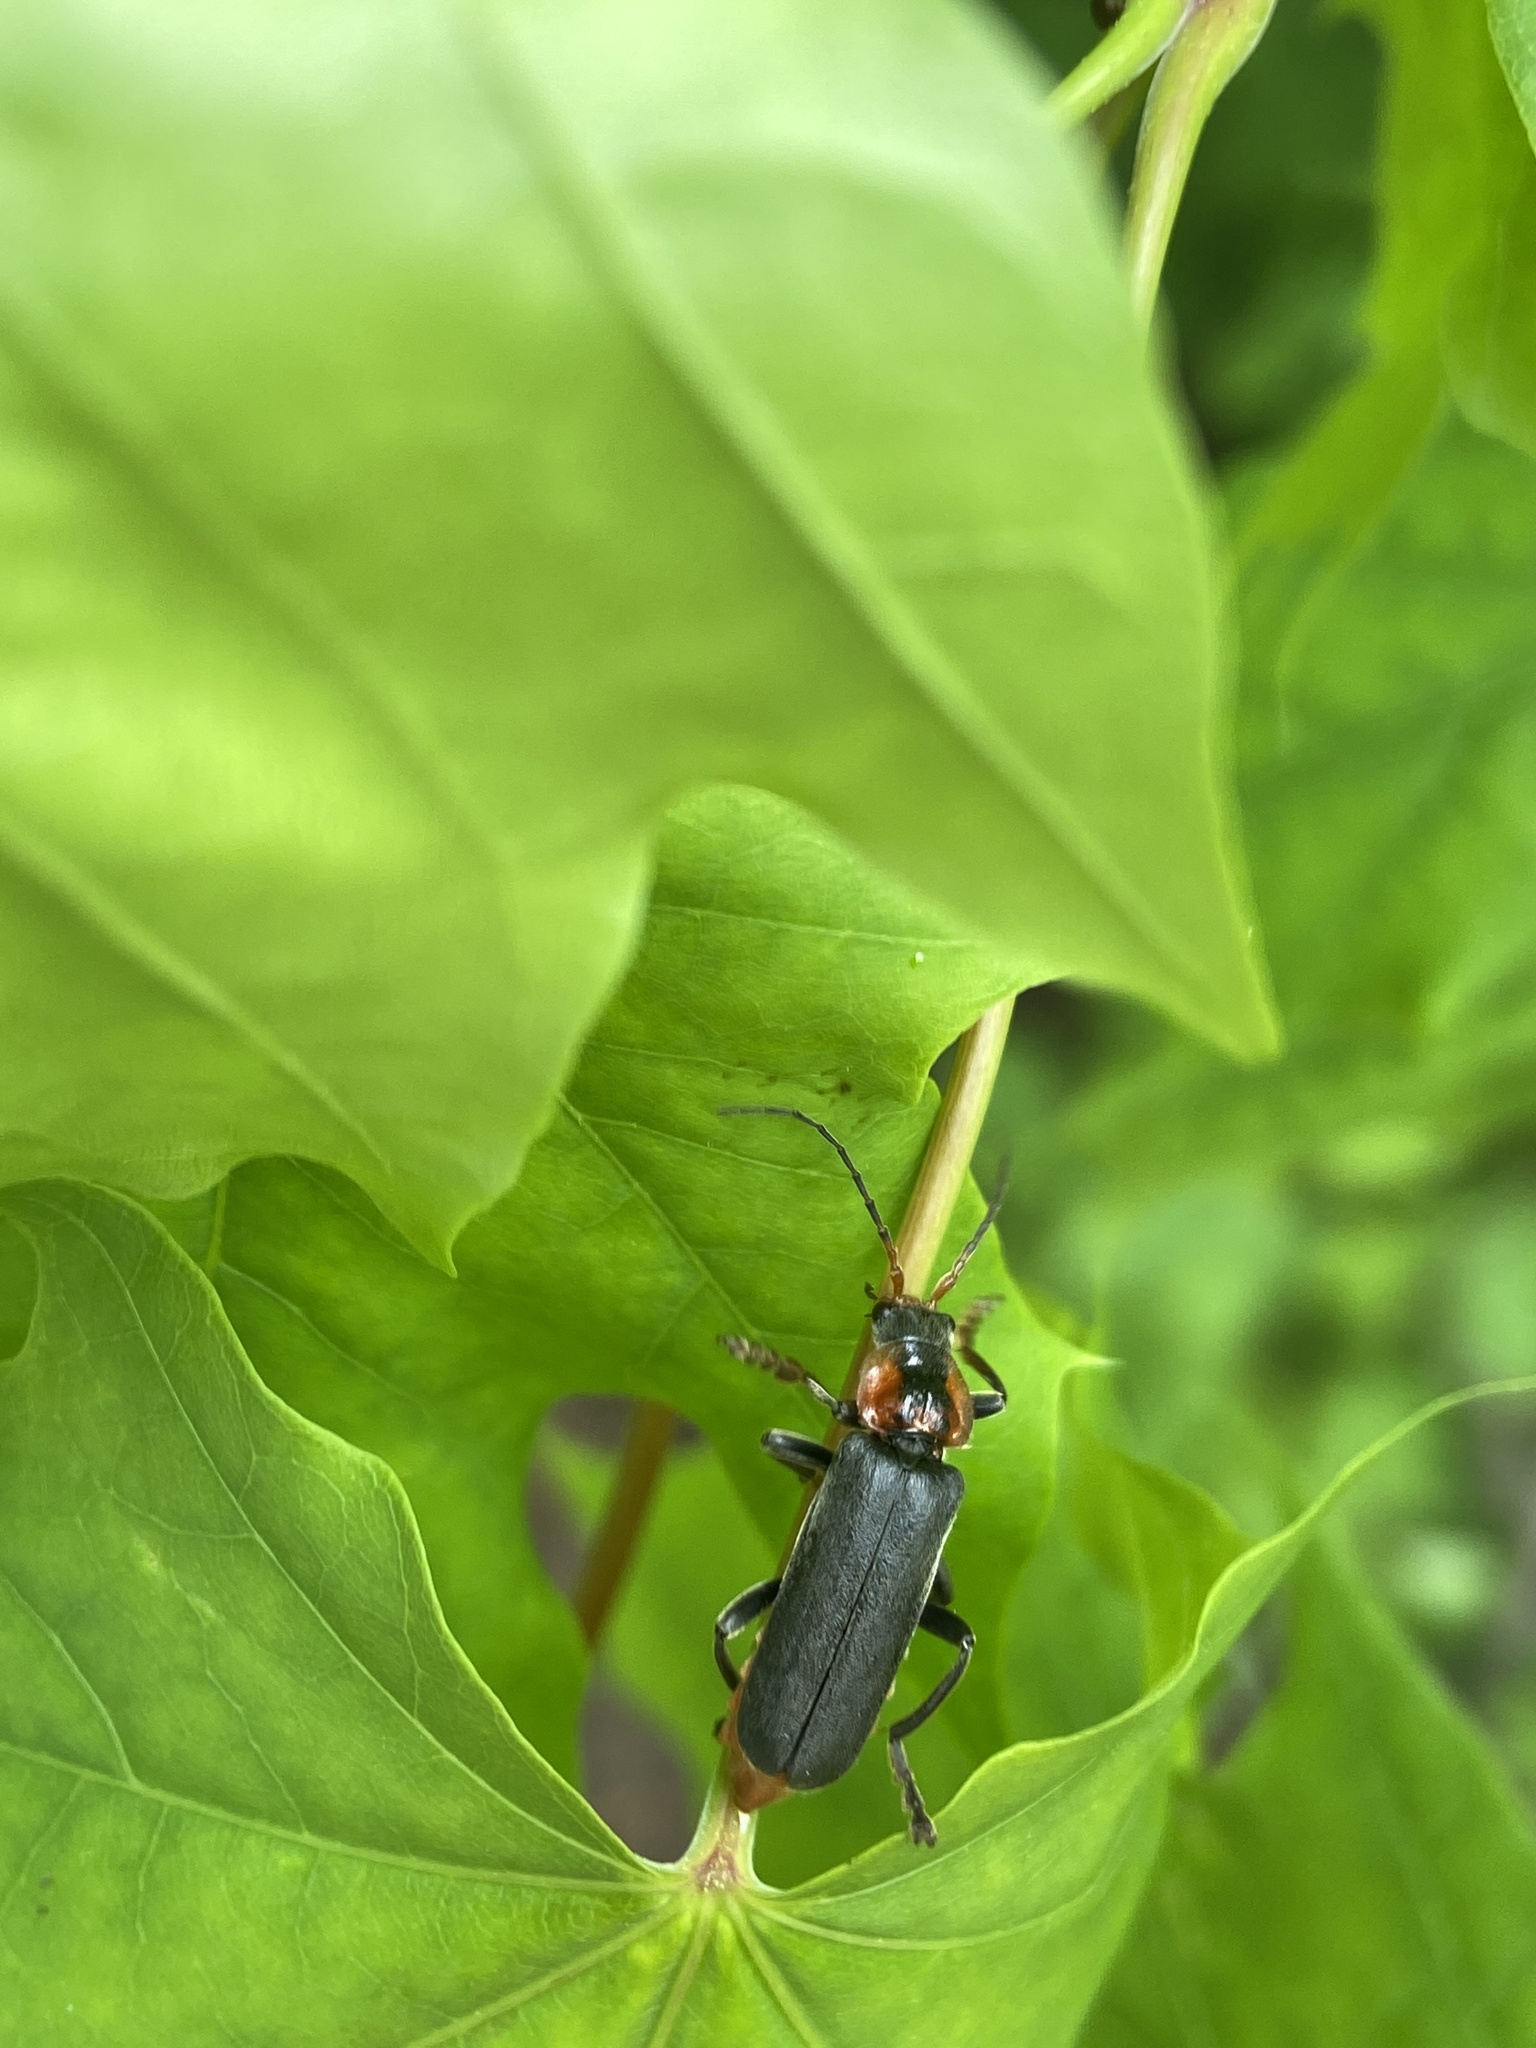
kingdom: Animalia
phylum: Arthropoda
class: Insecta
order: Coleoptera
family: Cantharidae
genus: Cantharis
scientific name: Cantharis fusca
